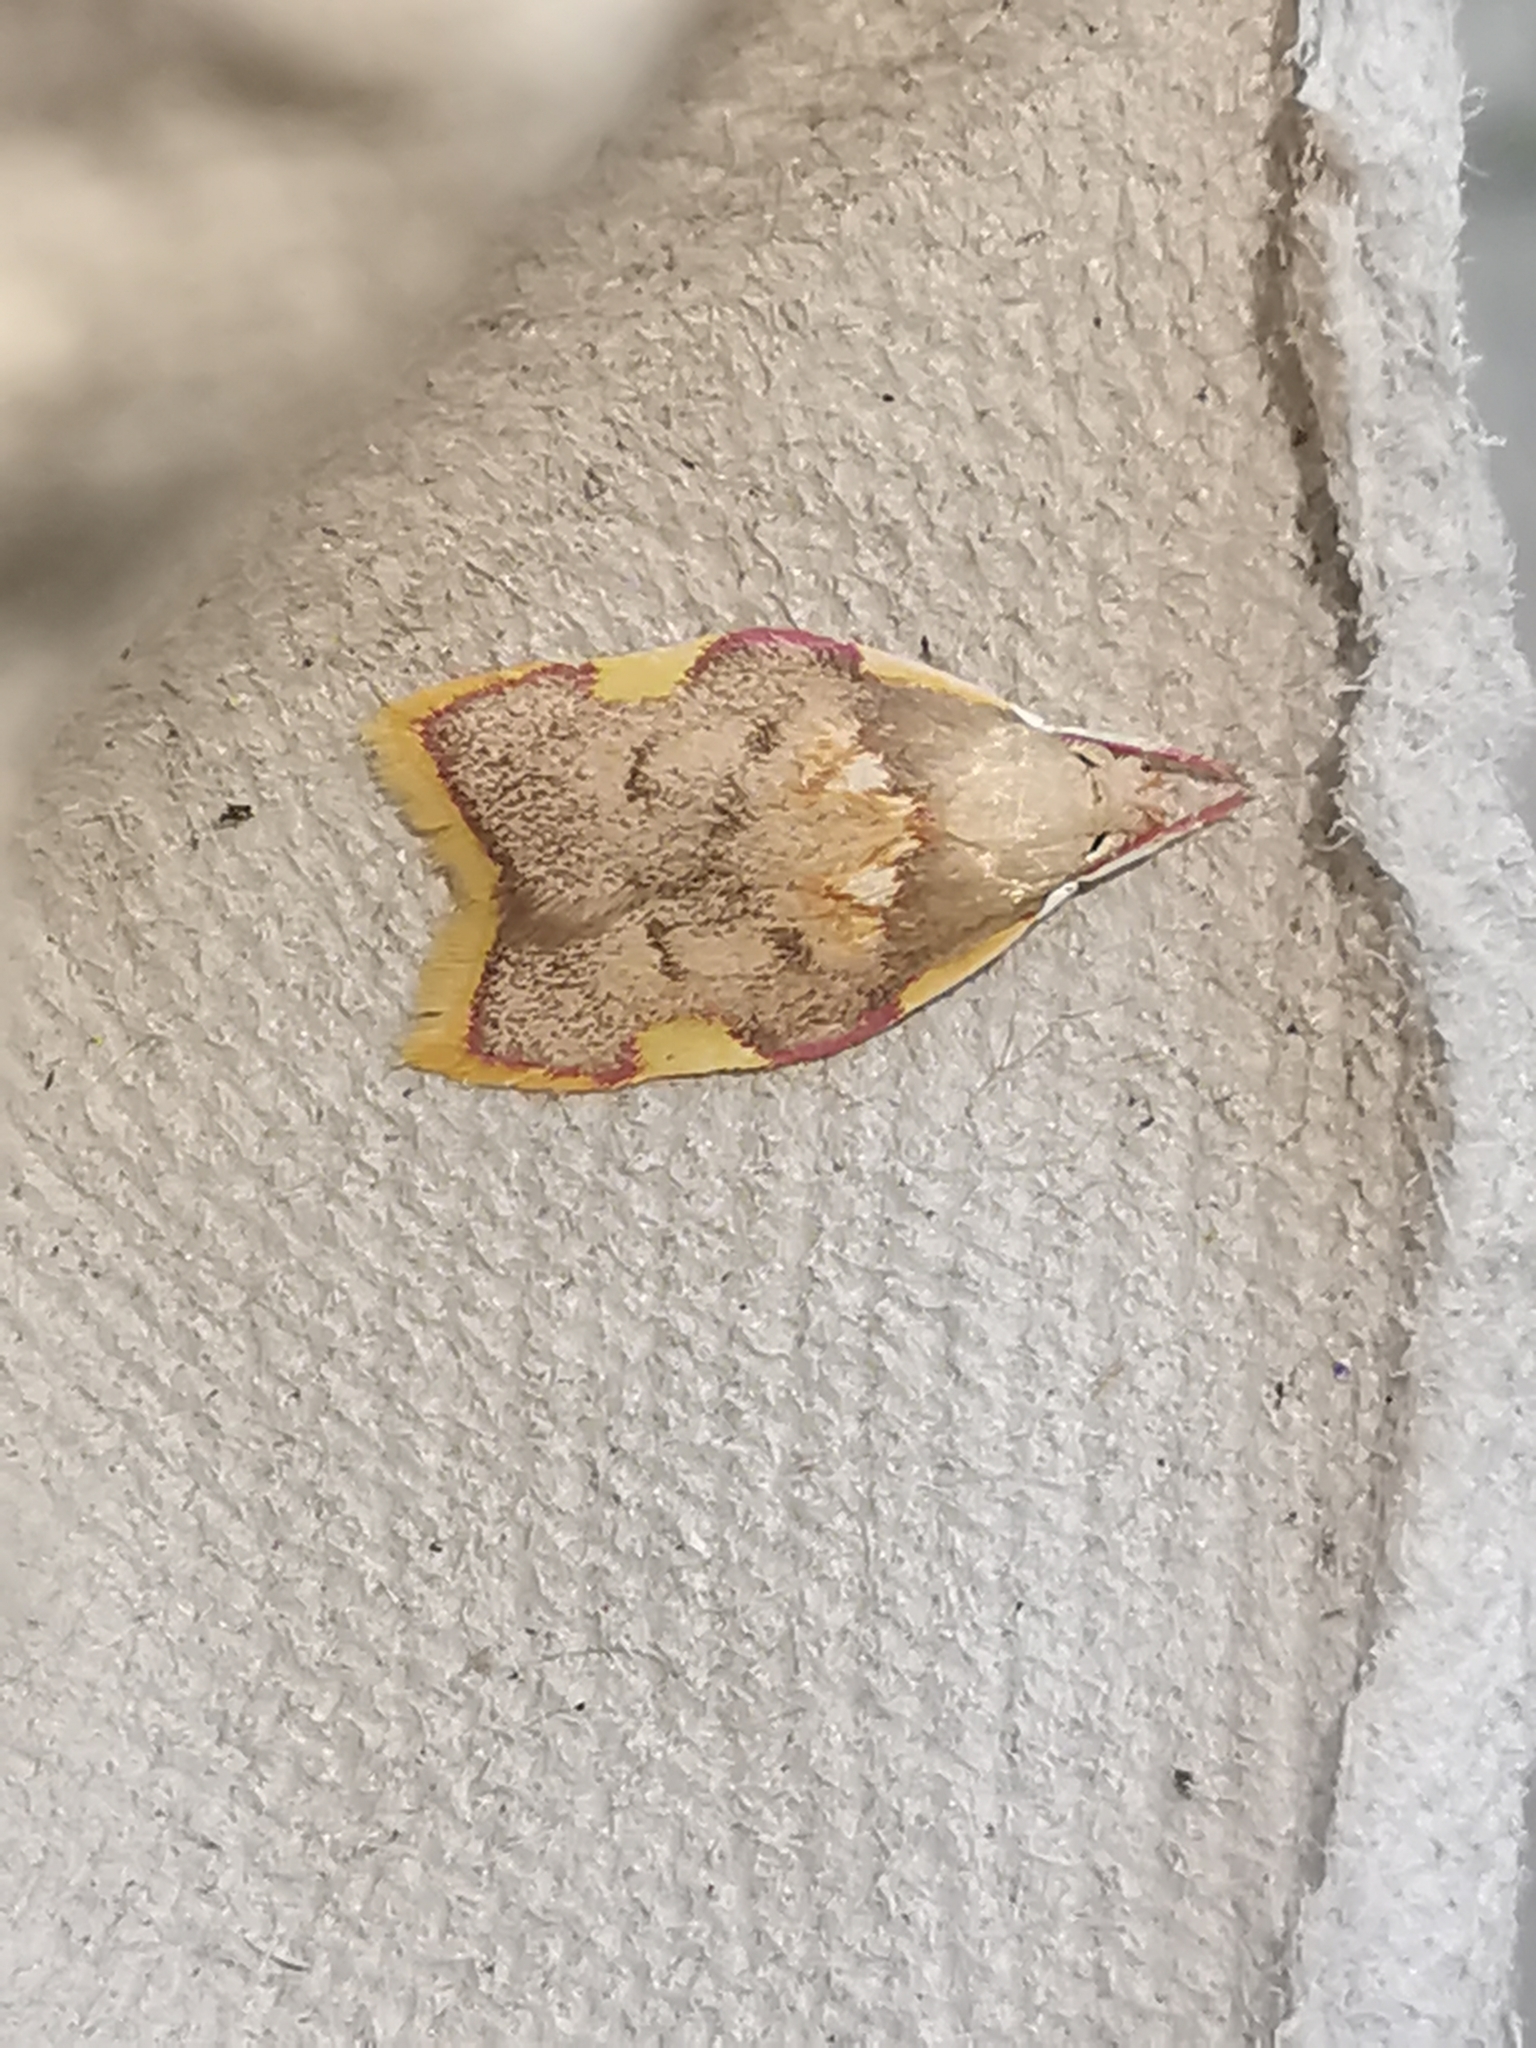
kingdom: Animalia
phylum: Arthropoda
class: Insecta
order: Lepidoptera
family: Peleopodidae
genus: Carcina
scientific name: Carcina quercana
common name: Moth
